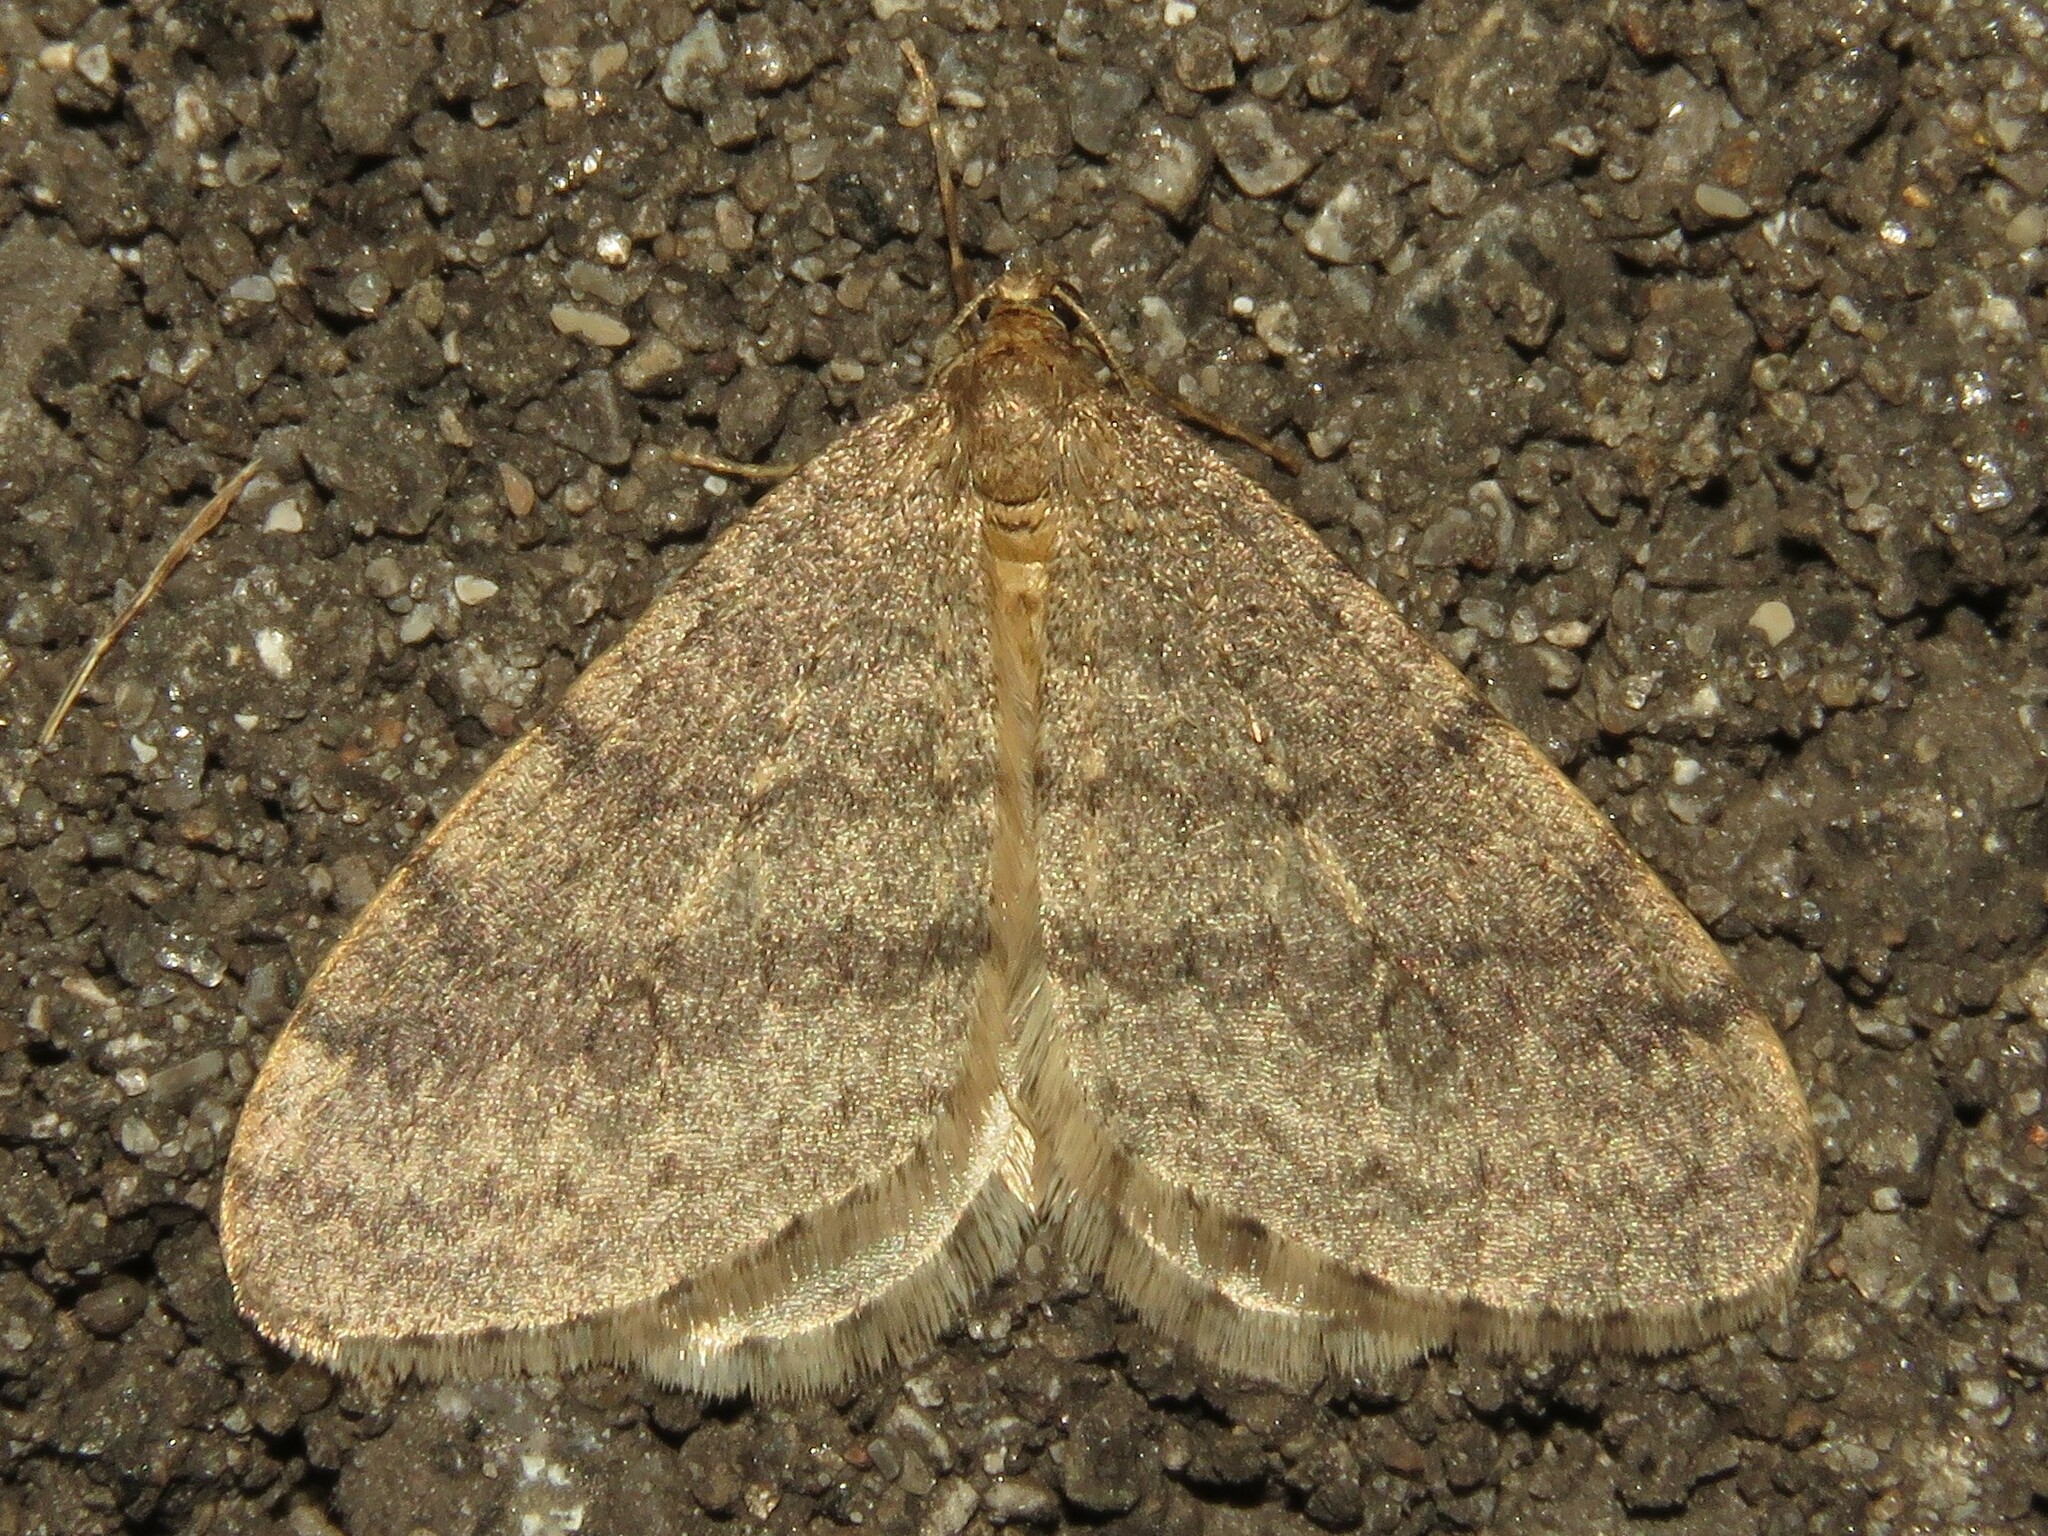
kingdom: Animalia
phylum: Arthropoda
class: Insecta
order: Lepidoptera
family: Geometridae
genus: Operophtera
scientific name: Operophtera bruceata
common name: Bruce spanworm
